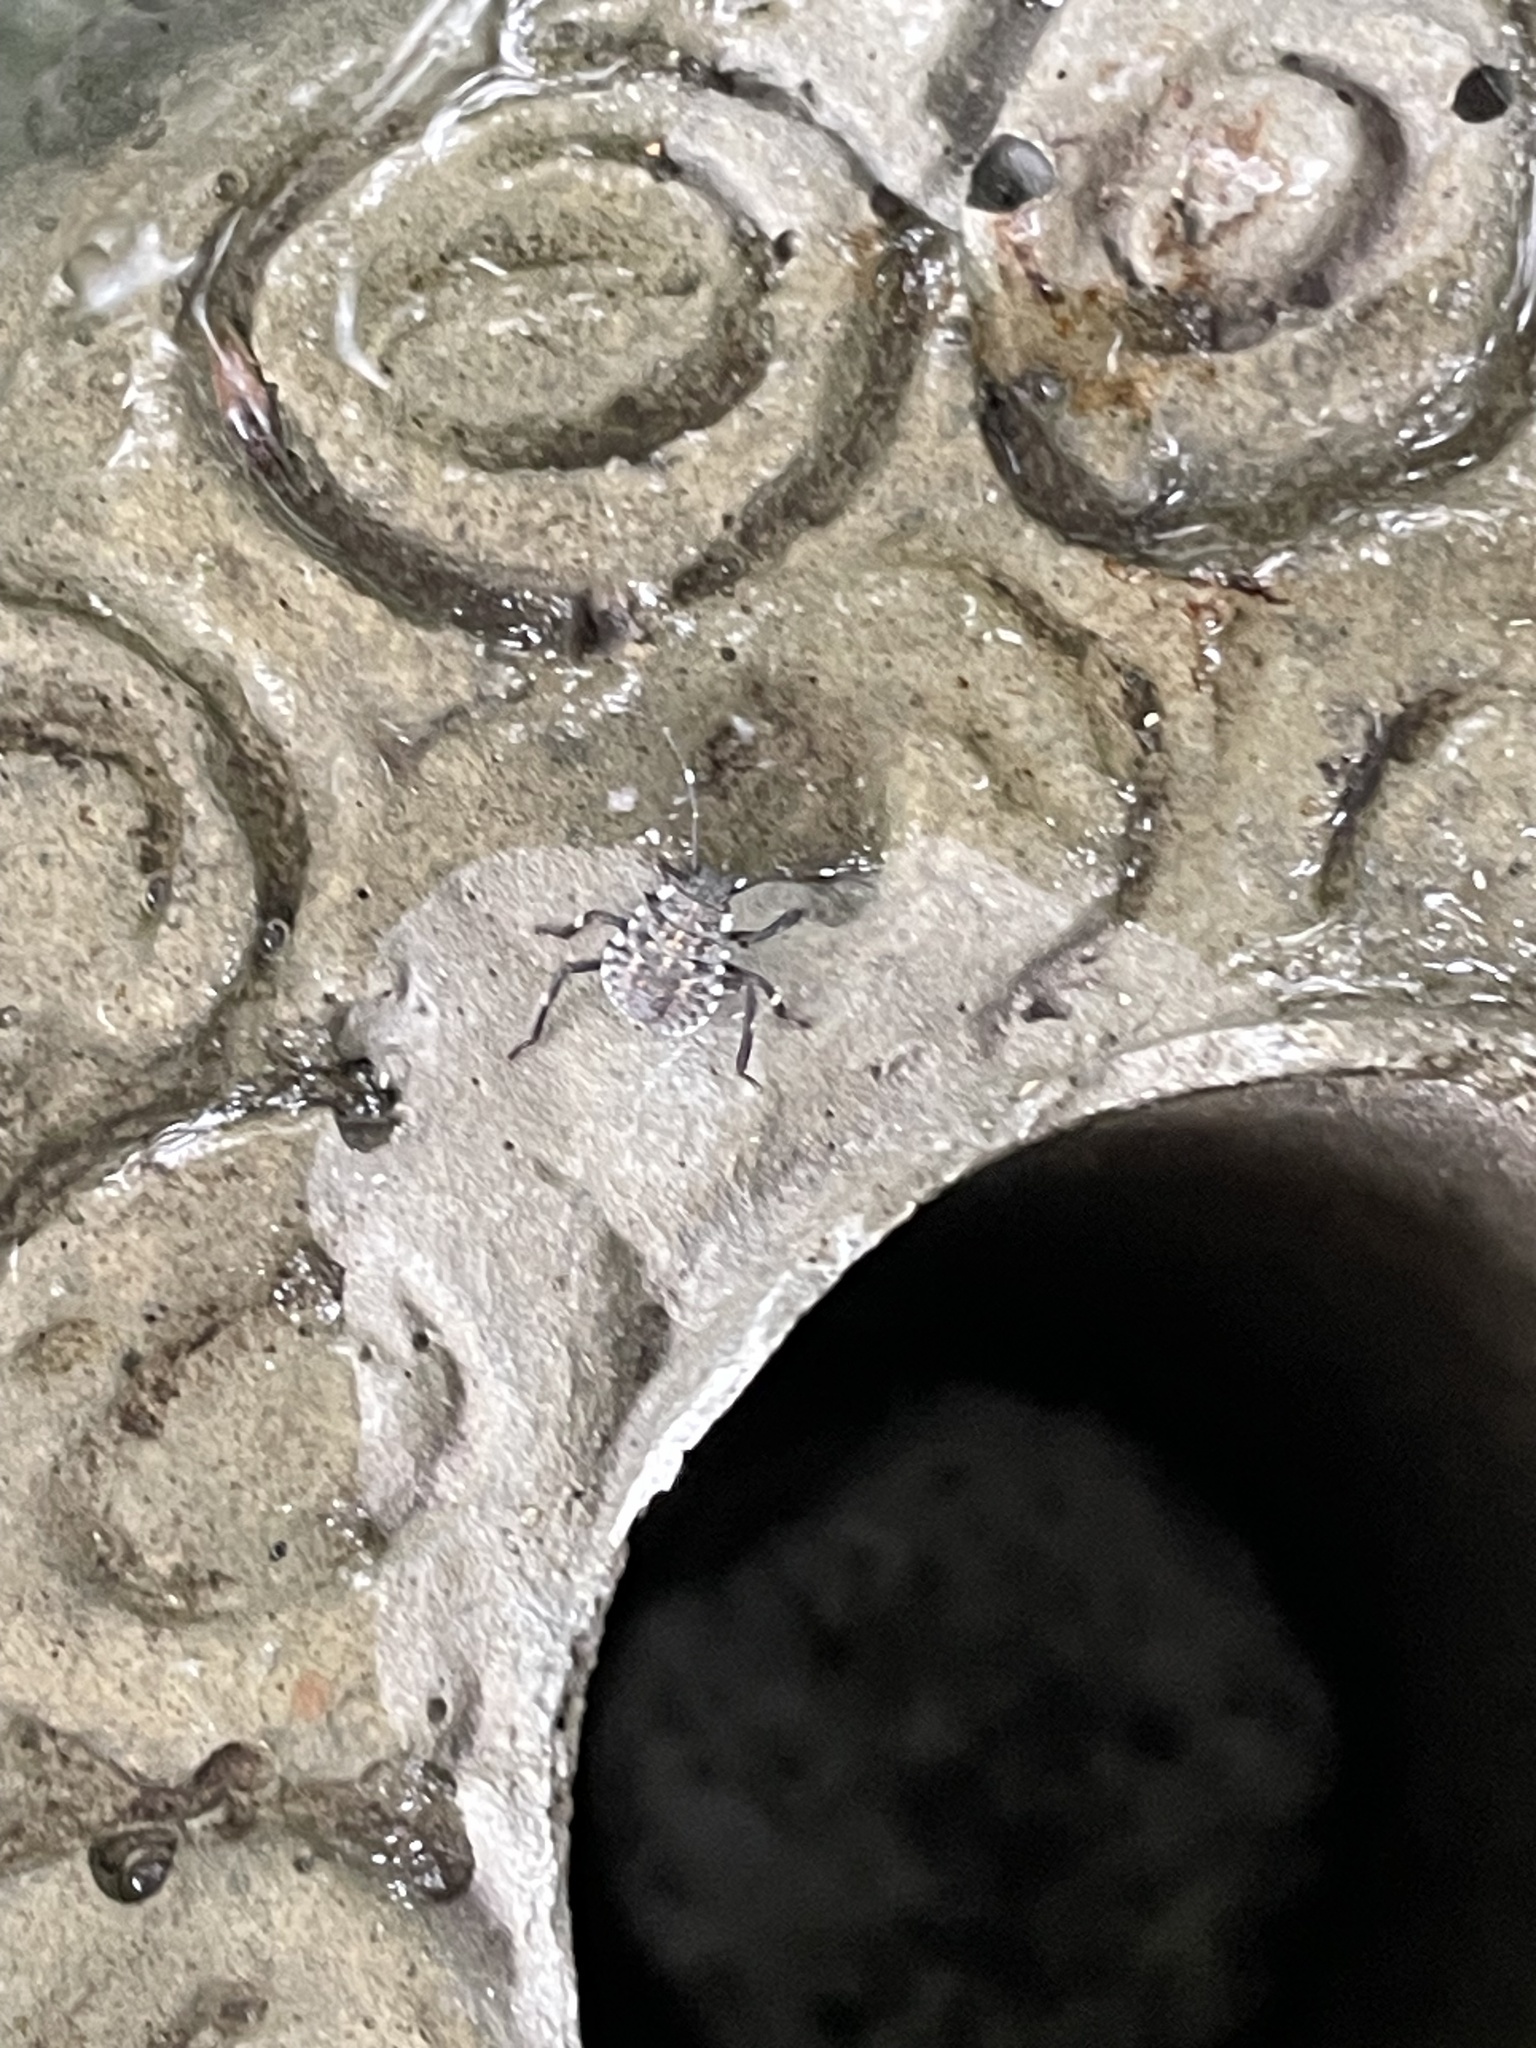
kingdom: Animalia
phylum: Arthropoda
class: Insecta
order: Hemiptera
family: Pentatomidae
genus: Halyomorpha
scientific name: Halyomorpha halys
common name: Brown marmorated stink bug
